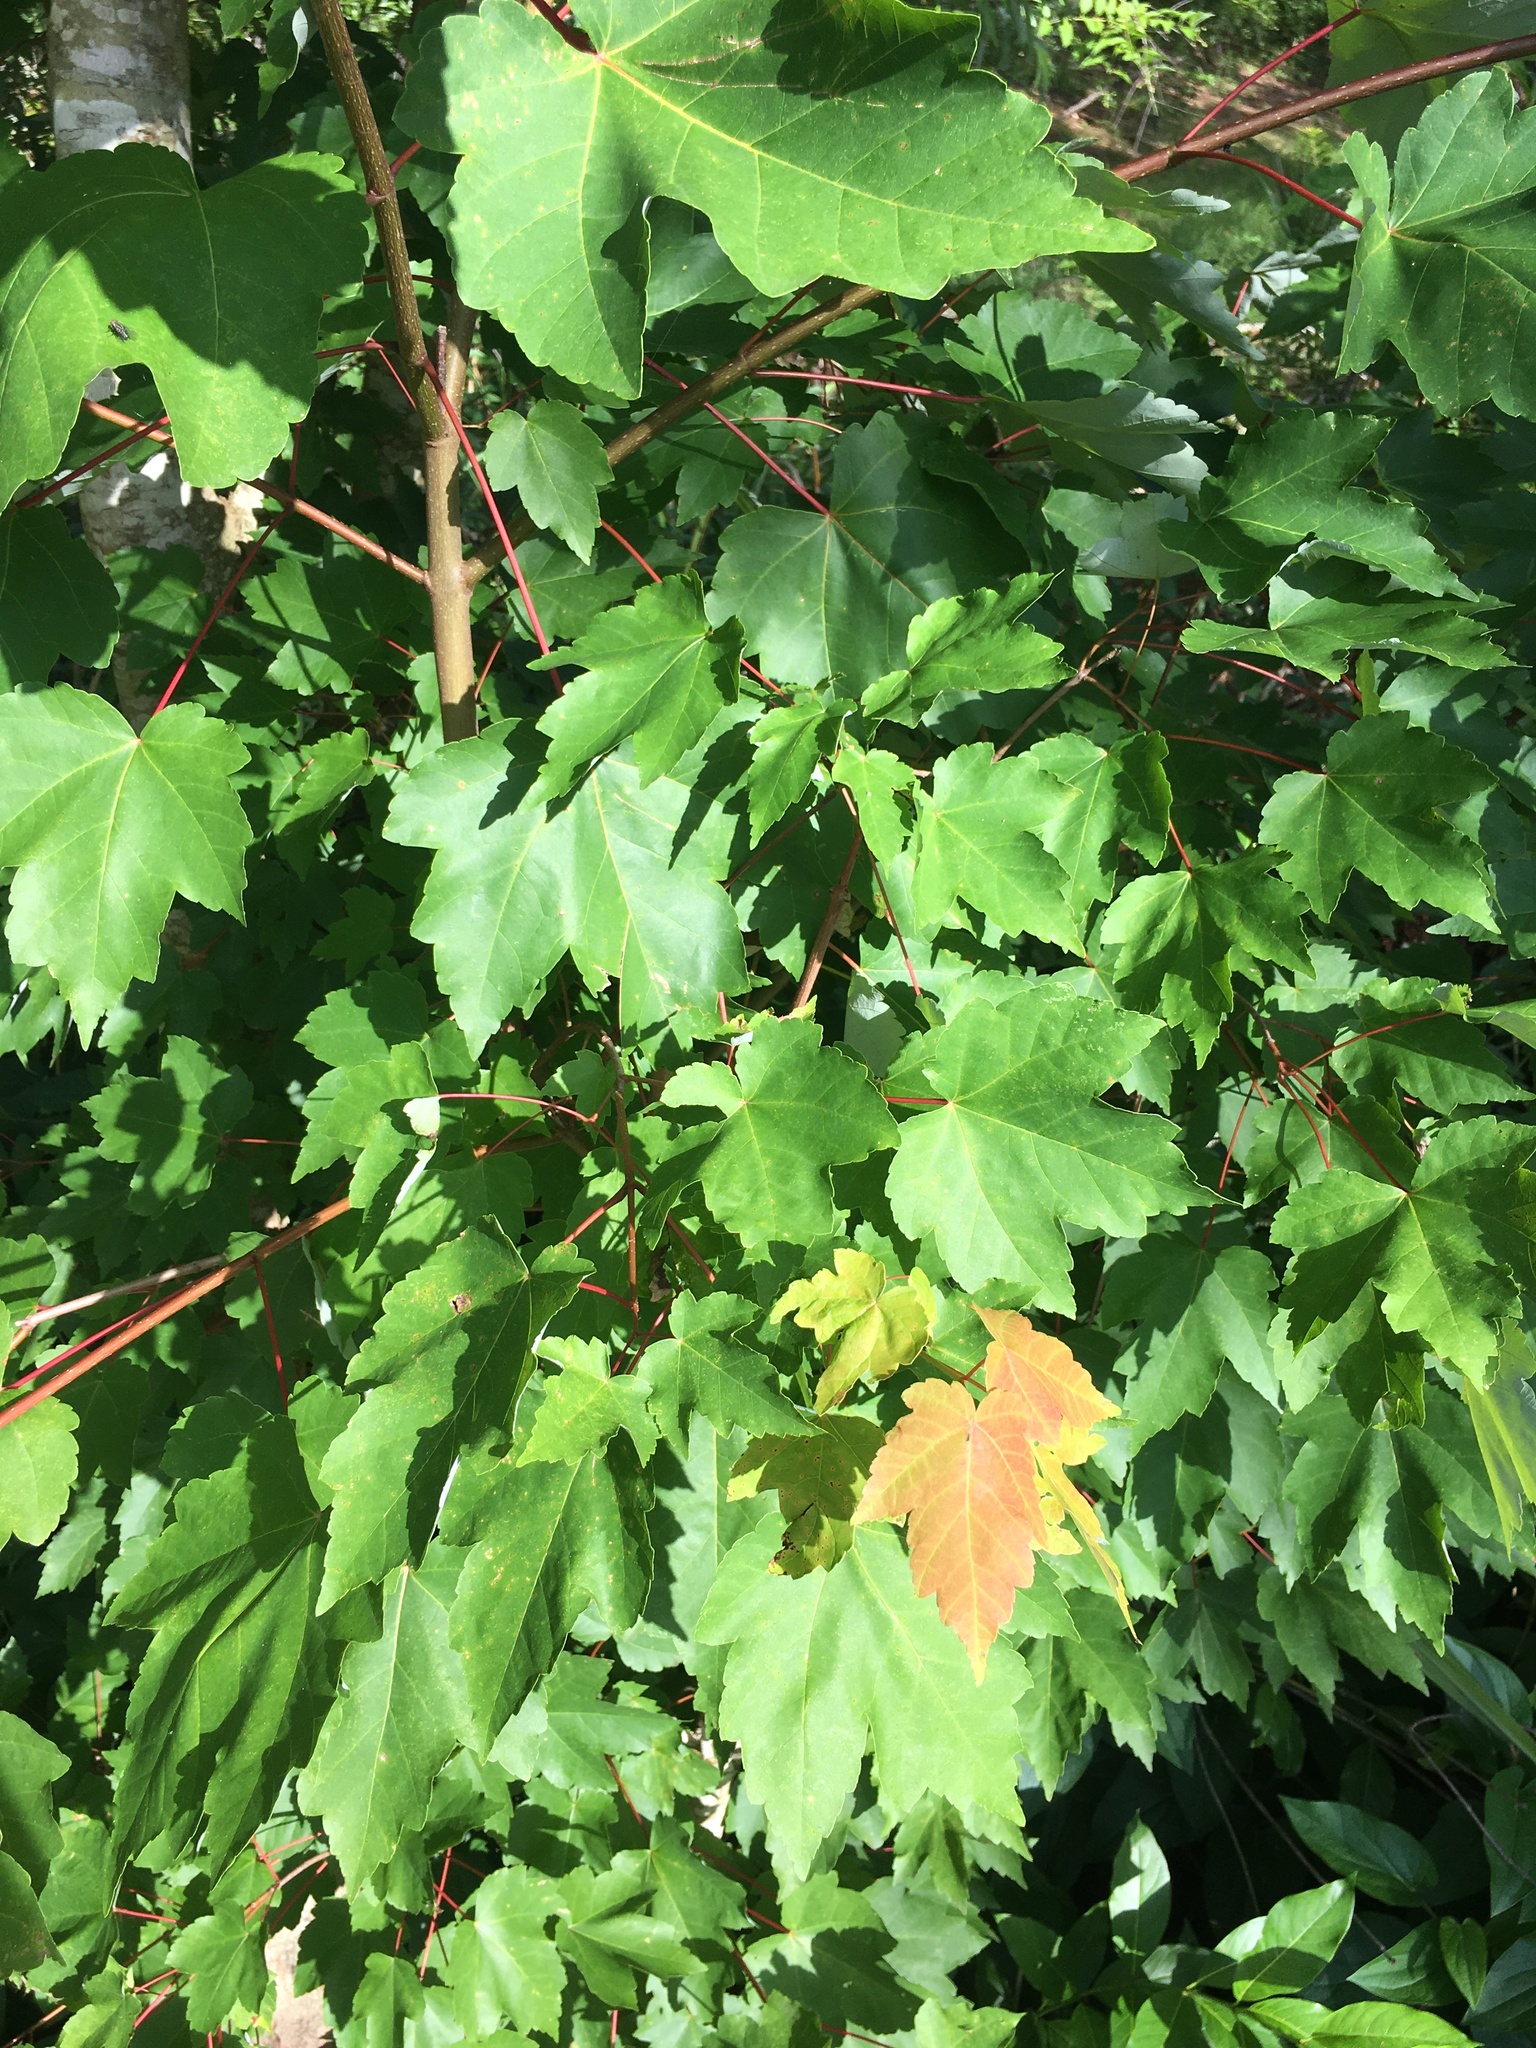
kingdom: Plantae
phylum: Tracheophyta
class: Magnoliopsida
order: Sapindales
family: Sapindaceae
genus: Acer
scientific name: Acer rubrum
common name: Red maple
